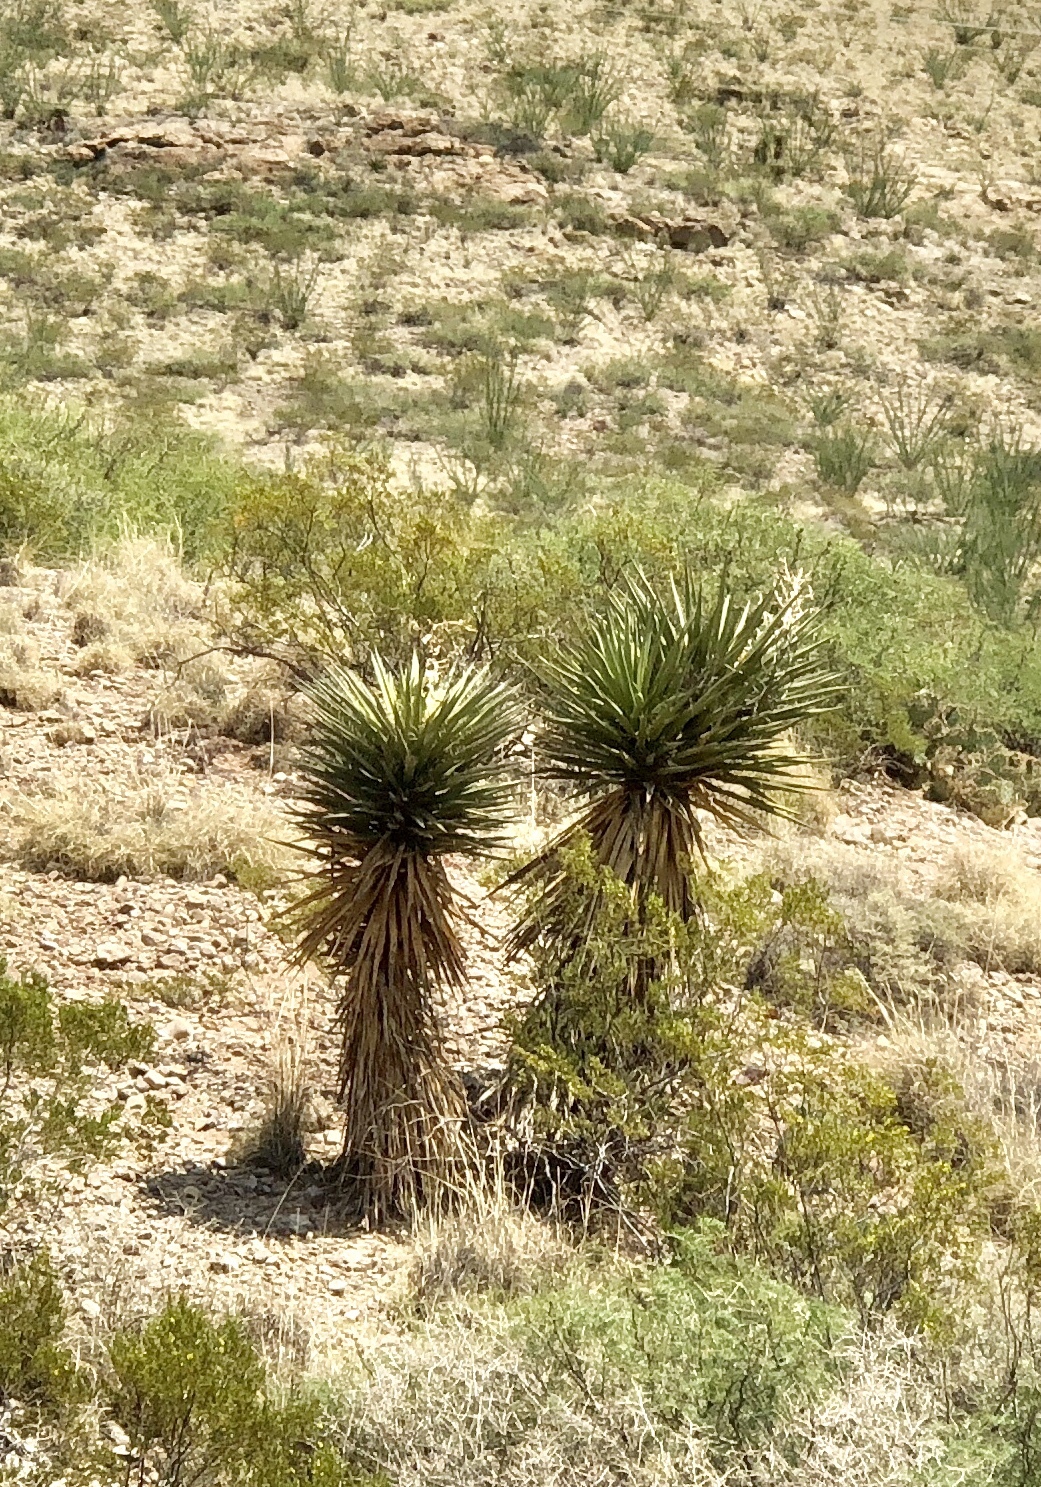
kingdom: Plantae
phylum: Tracheophyta
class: Liliopsida
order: Asparagales
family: Asparagaceae
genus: Yucca
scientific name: Yucca treculiana
